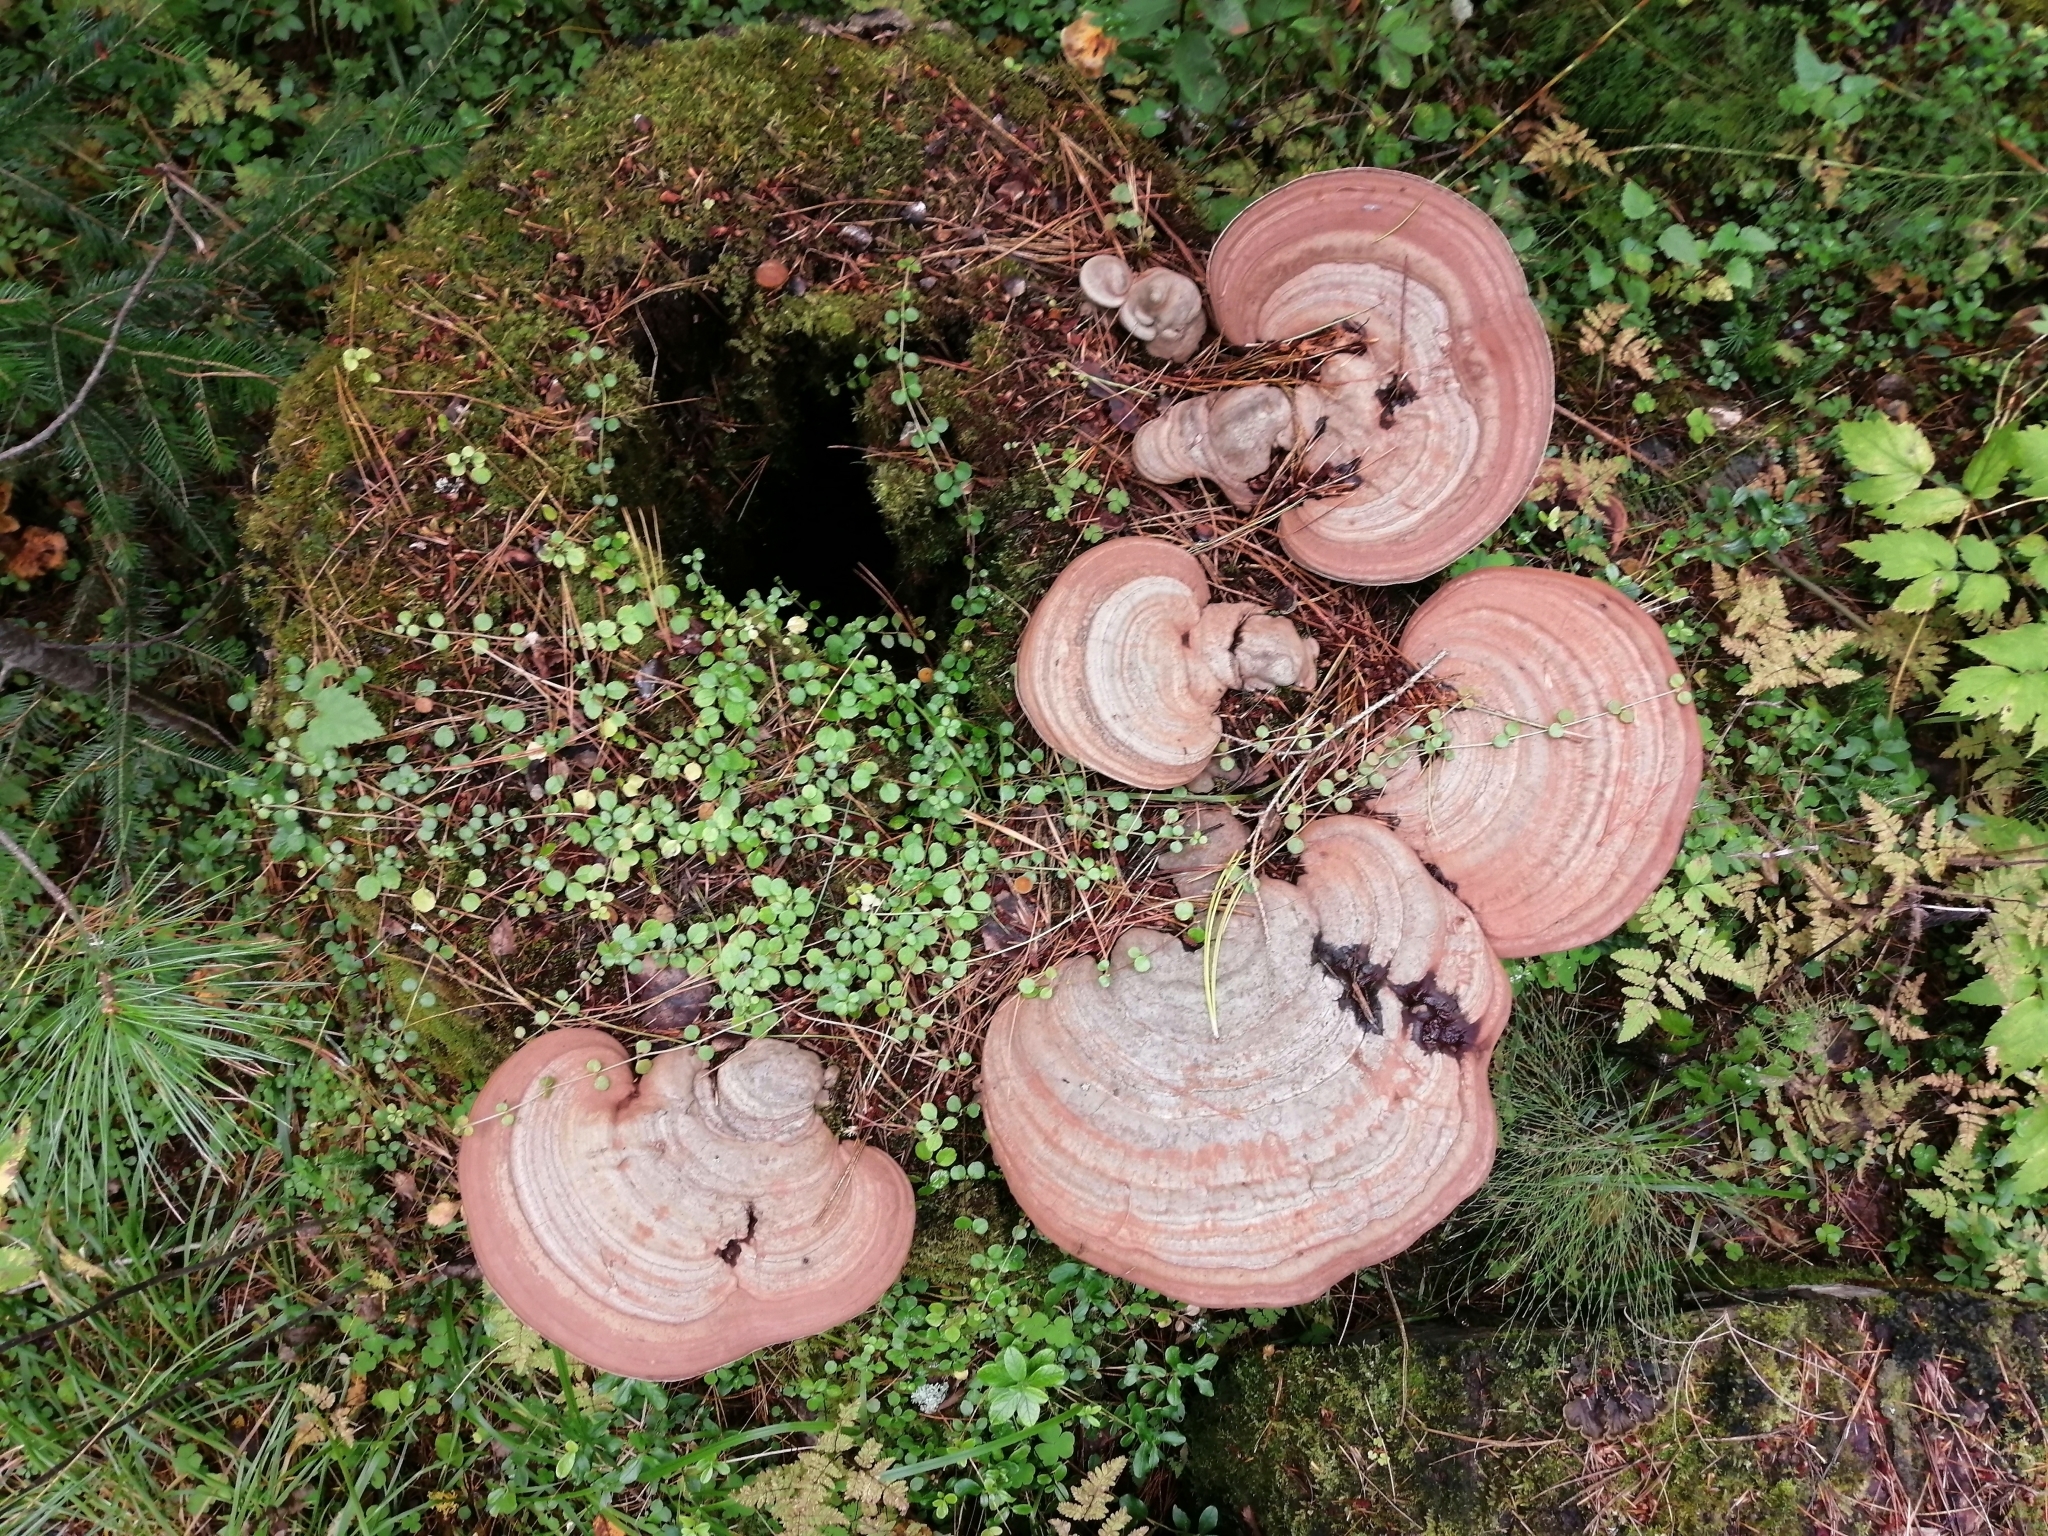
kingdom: Fungi
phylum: Basidiomycota
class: Agaricomycetes
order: Polyporales
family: Polyporaceae
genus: Ganoderma
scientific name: Ganoderma applanatum
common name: Artist's bracket
